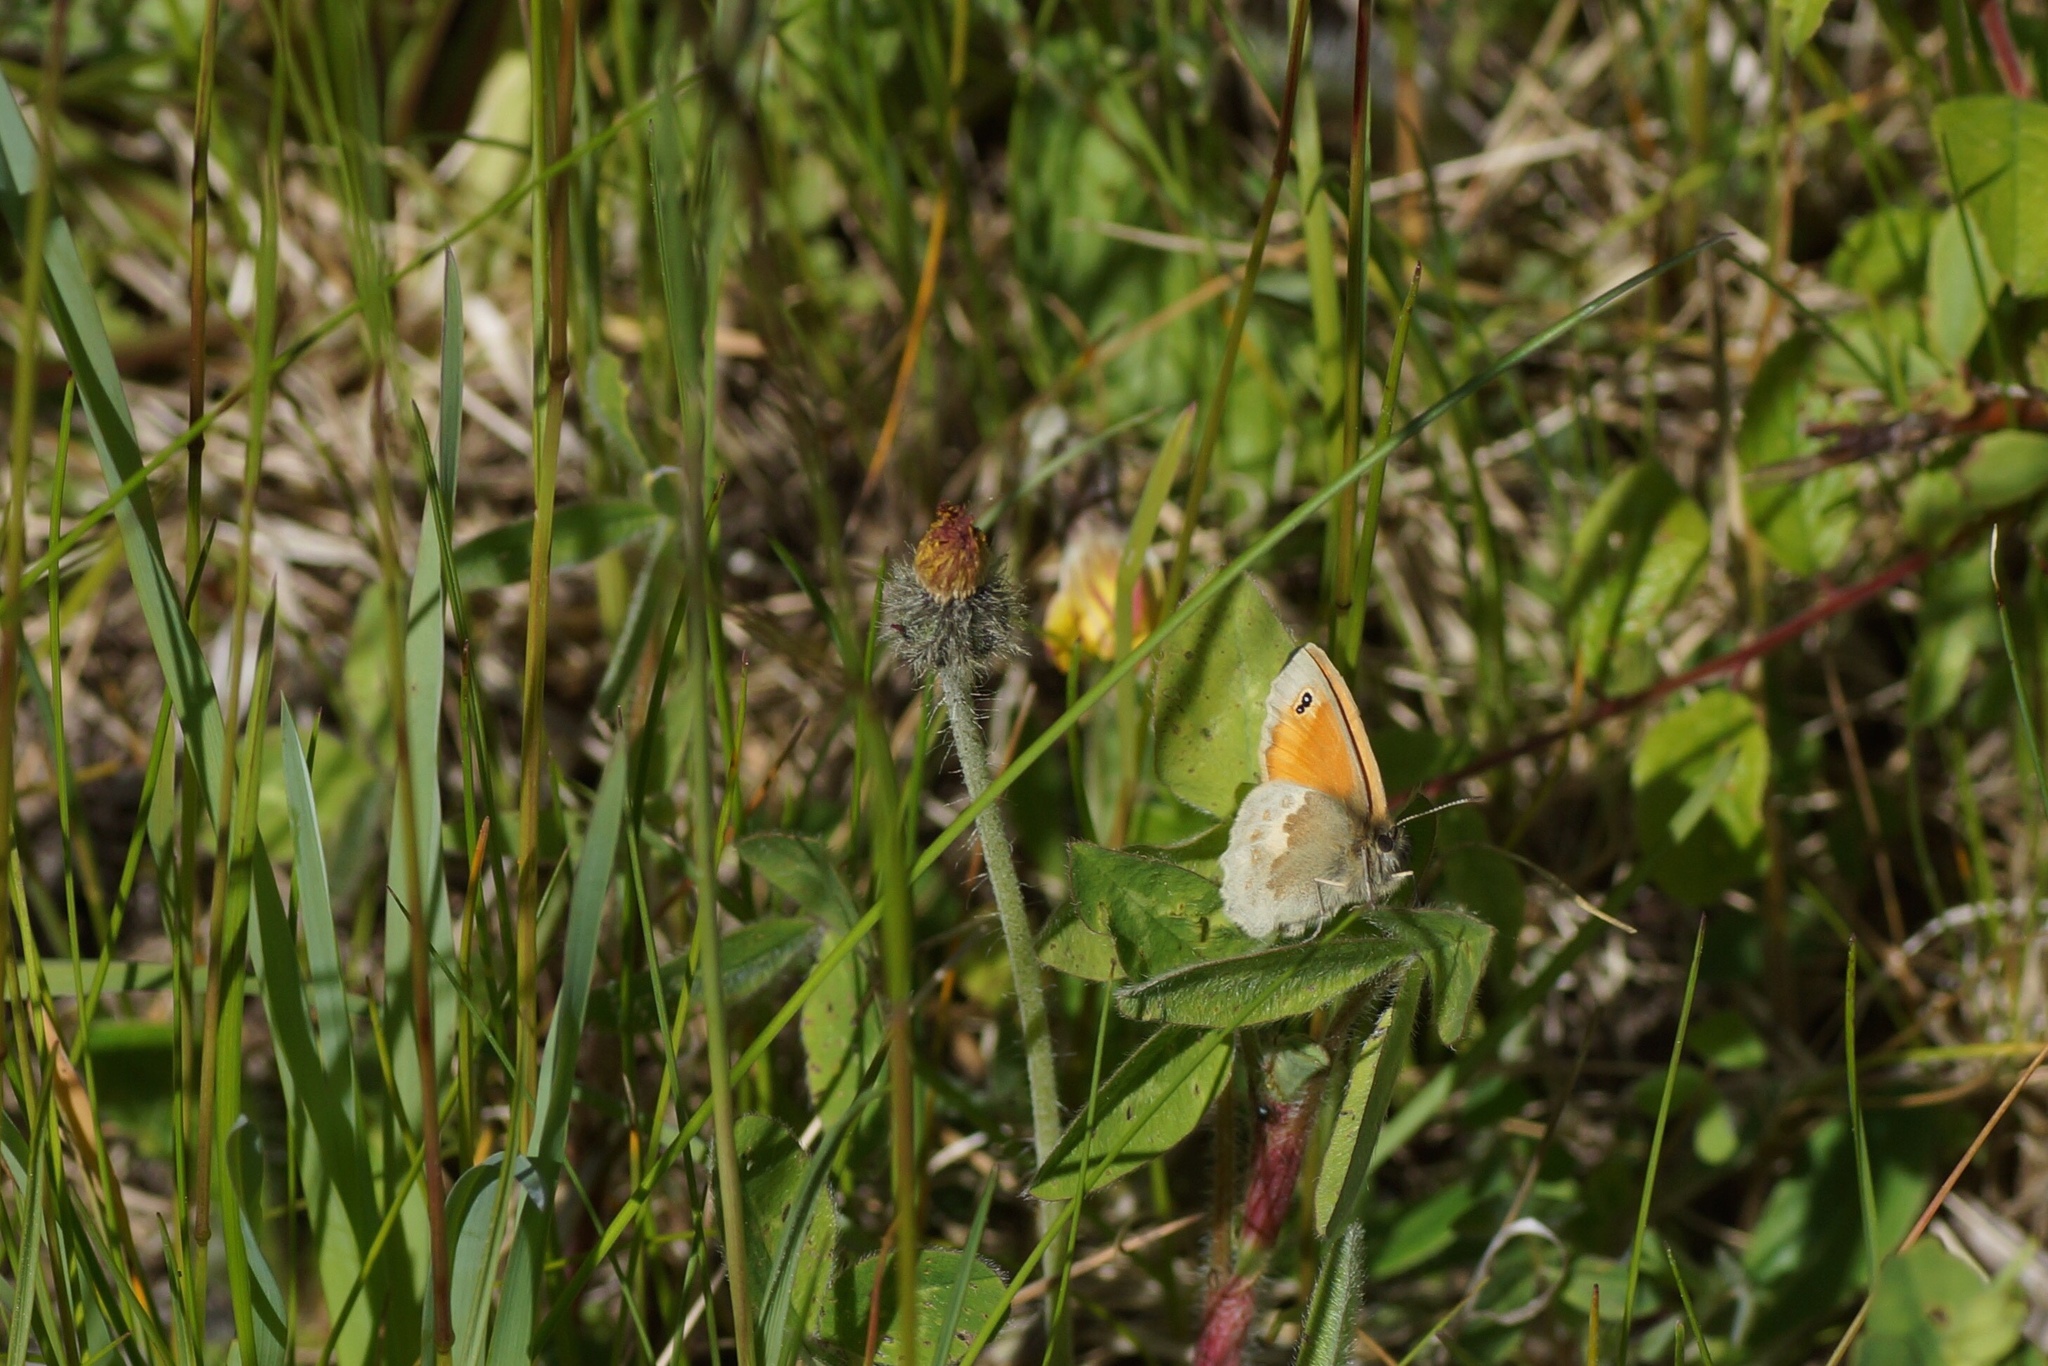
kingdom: Animalia
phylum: Arthropoda
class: Insecta
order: Lepidoptera
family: Nymphalidae
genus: Coenonympha
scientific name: Coenonympha pamphilus
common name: Small heath
